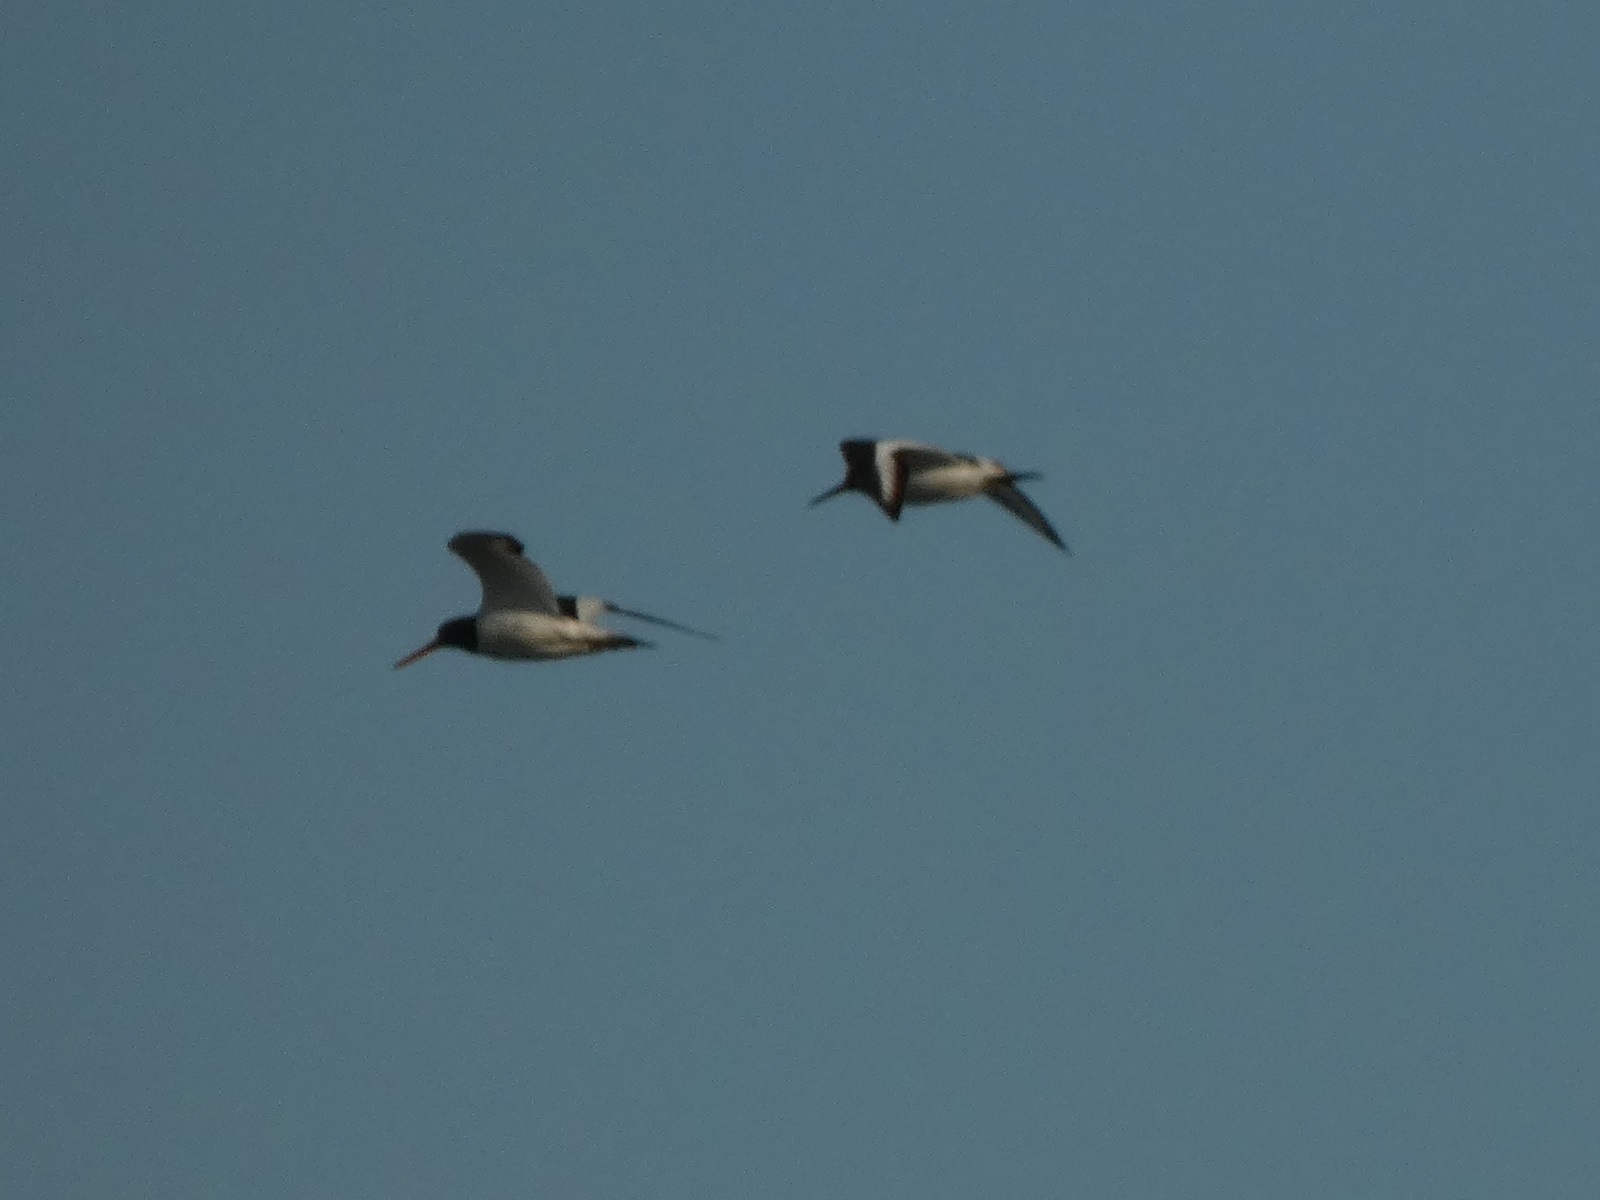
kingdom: Animalia
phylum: Chordata
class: Aves
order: Charadriiformes
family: Haematopodidae
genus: Haematopus
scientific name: Haematopus ostralegus
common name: Eurasian oystercatcher
